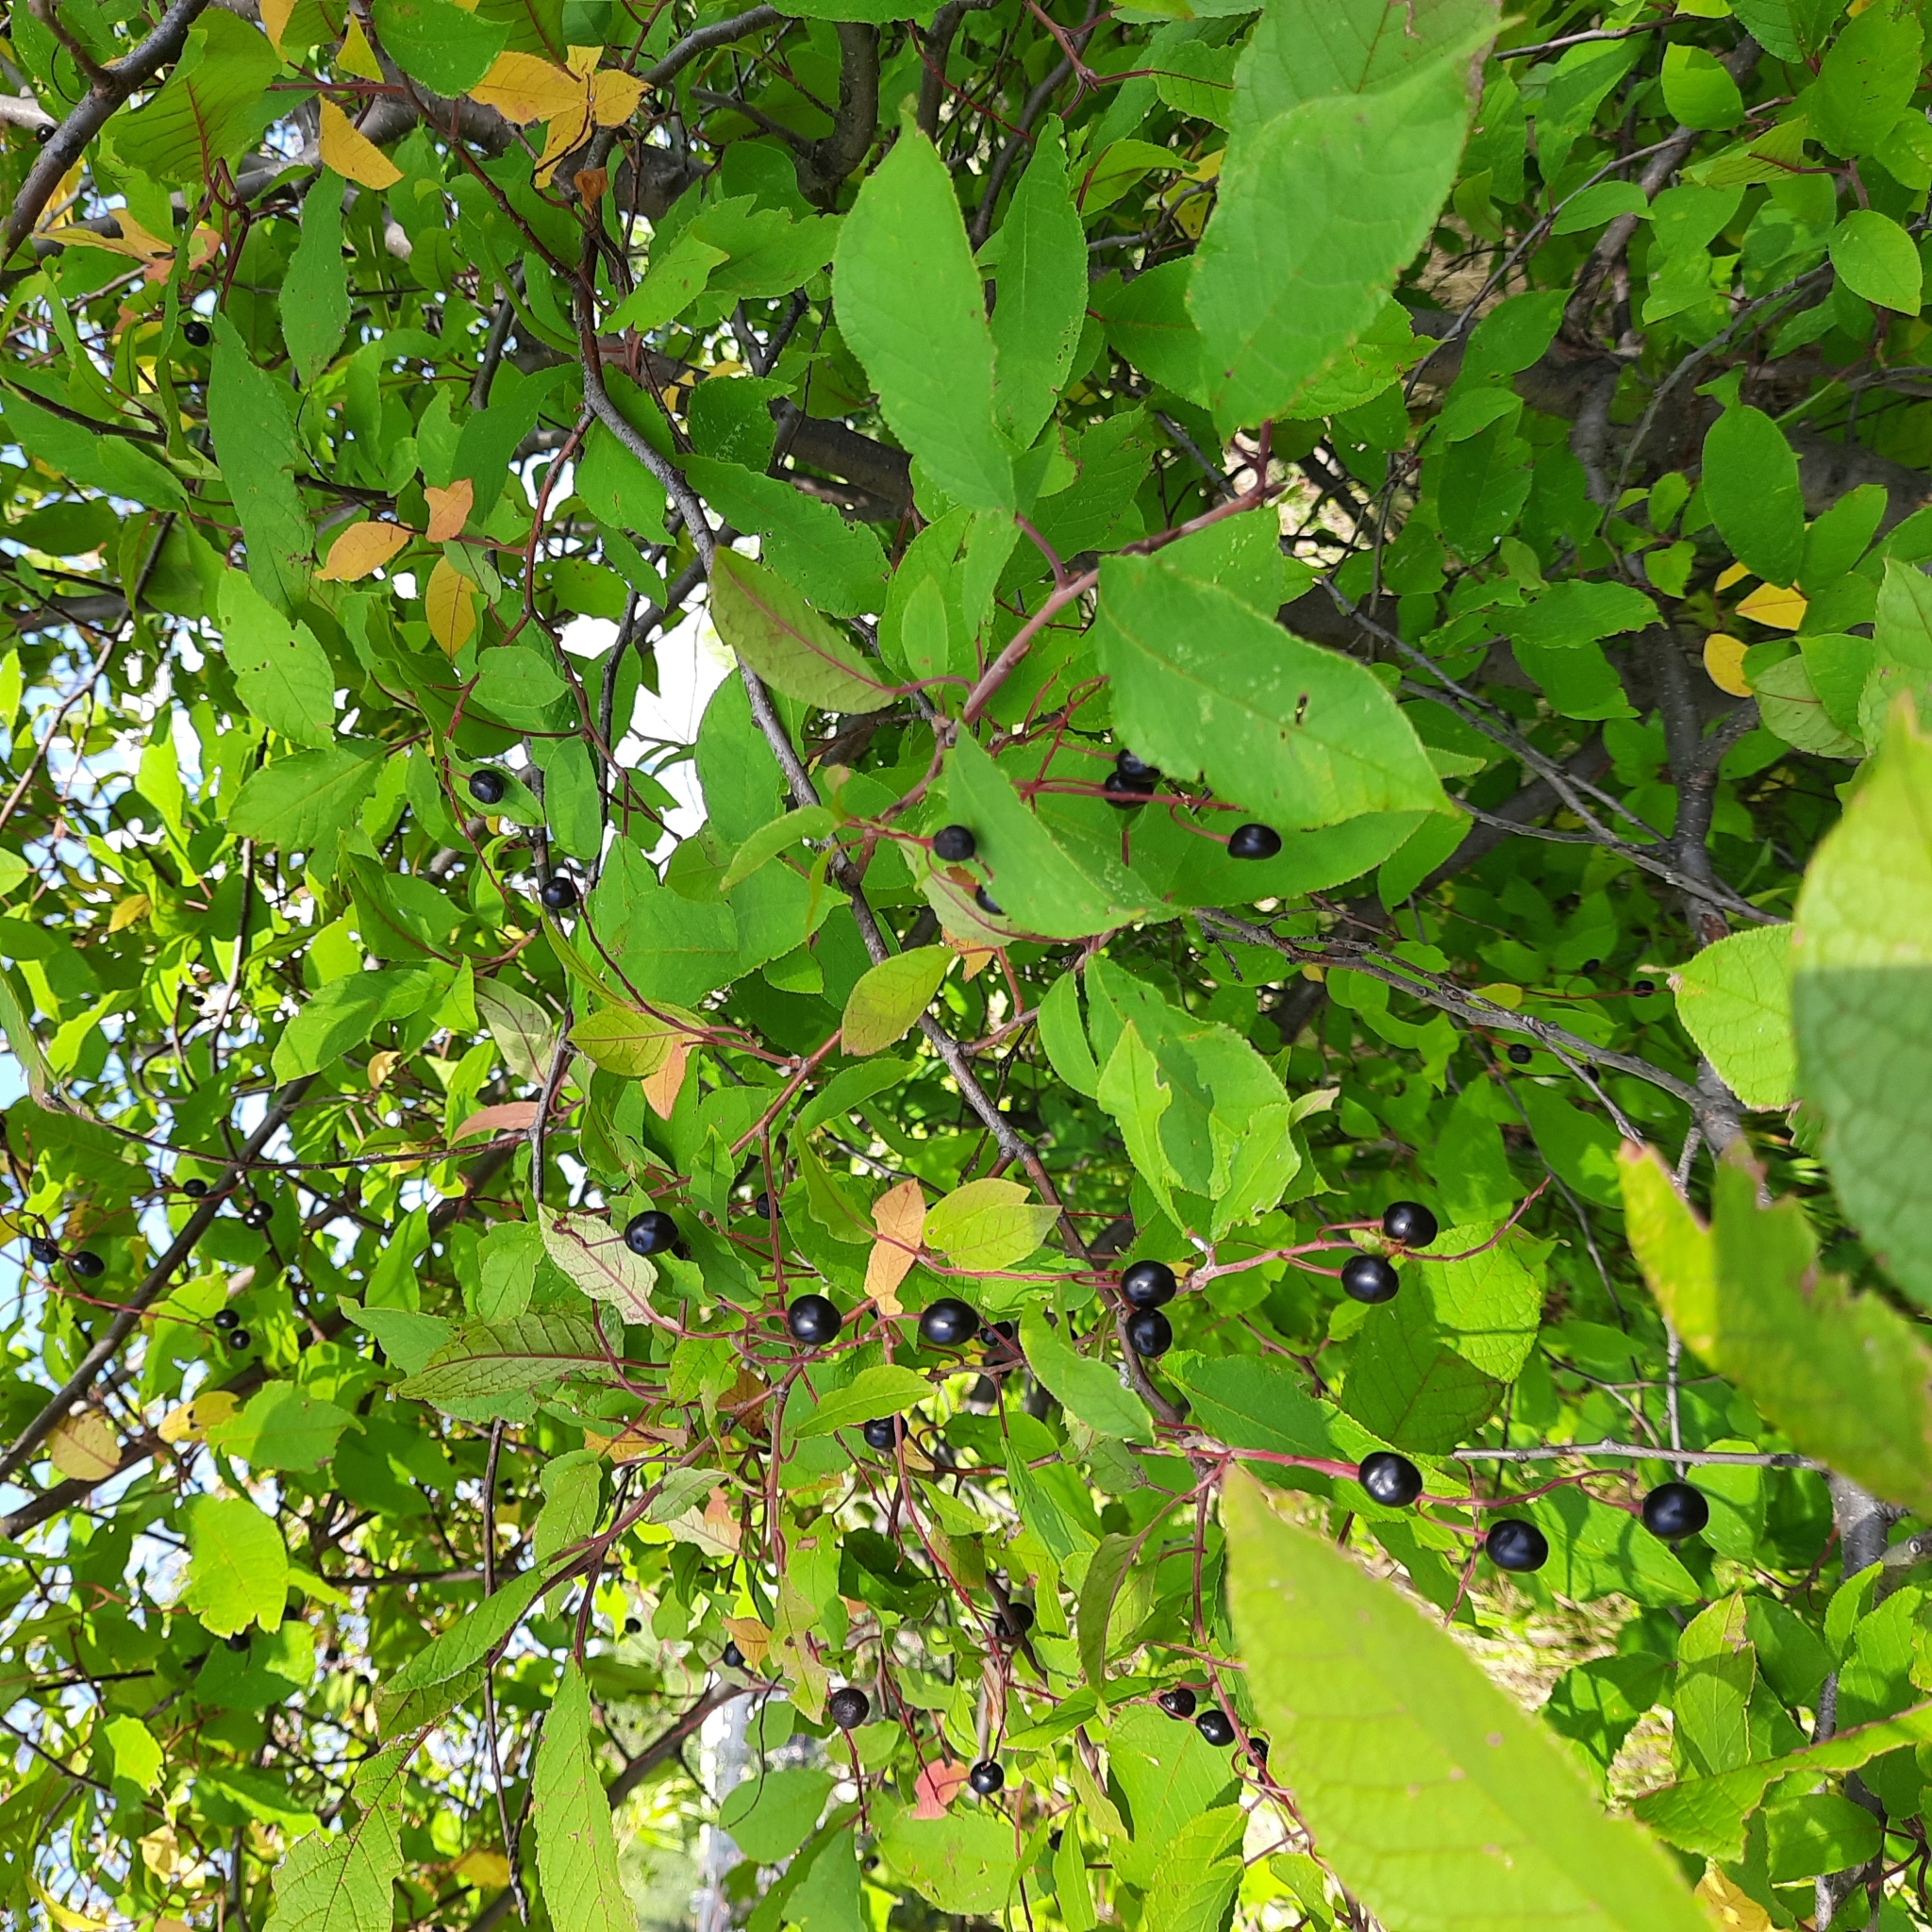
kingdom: Plantae
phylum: Tracheophyta
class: Magnoliopsida
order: Rosales
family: Rosaceae
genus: Prunus
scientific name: Prunus padus
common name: Bird cherry
